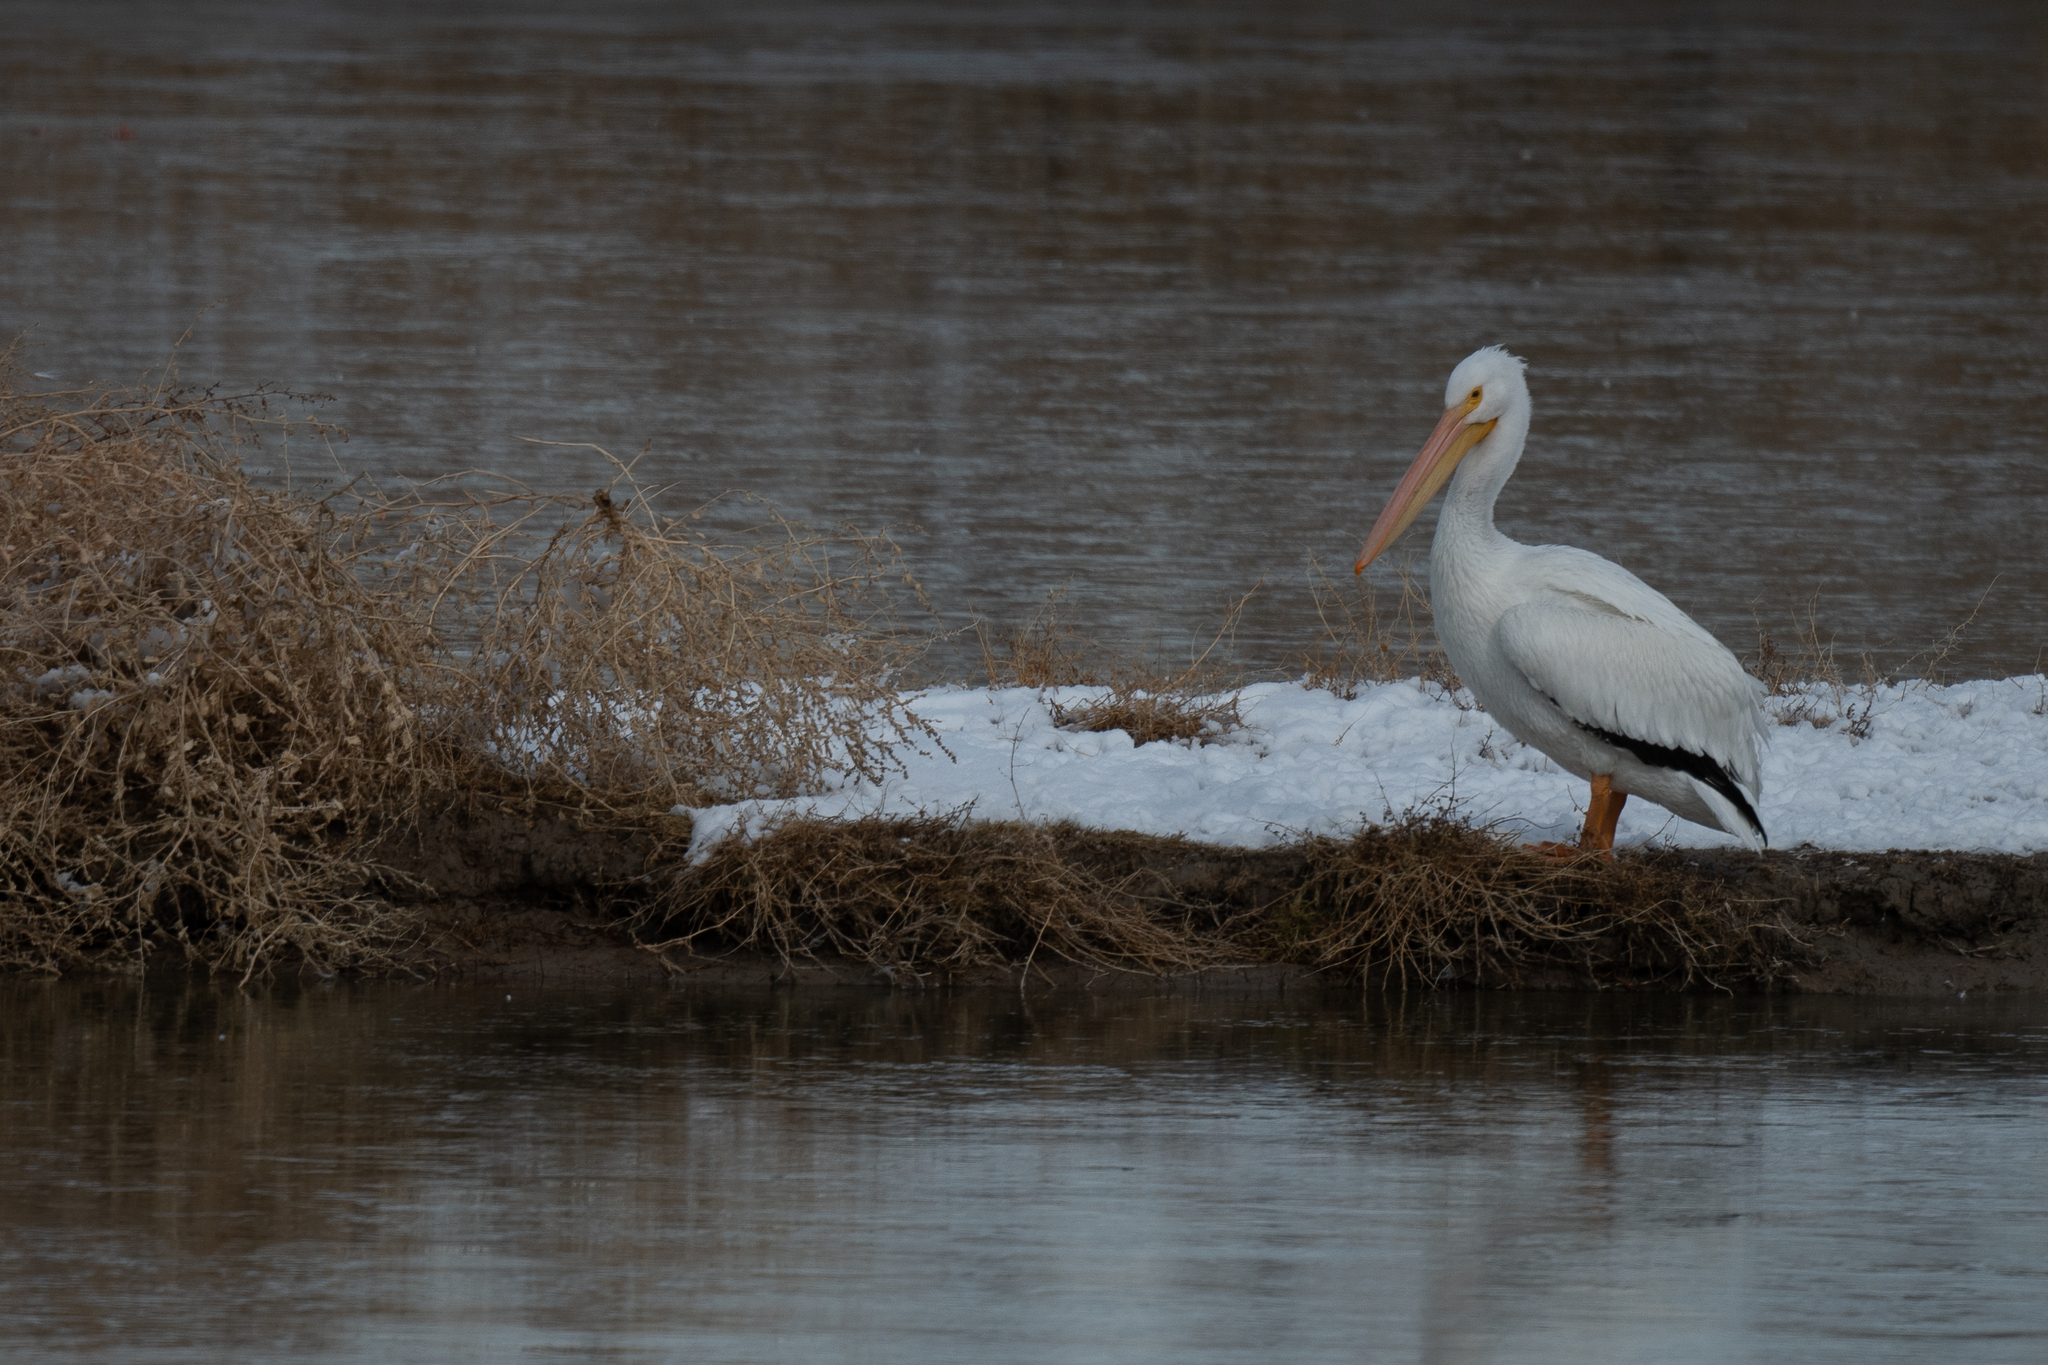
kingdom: Animalia
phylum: Chordata
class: Aves
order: Pelecaniformes
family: Pelecanidae
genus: Pelecanus
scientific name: Pelecanus erythrorhynchos
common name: American white pelican
